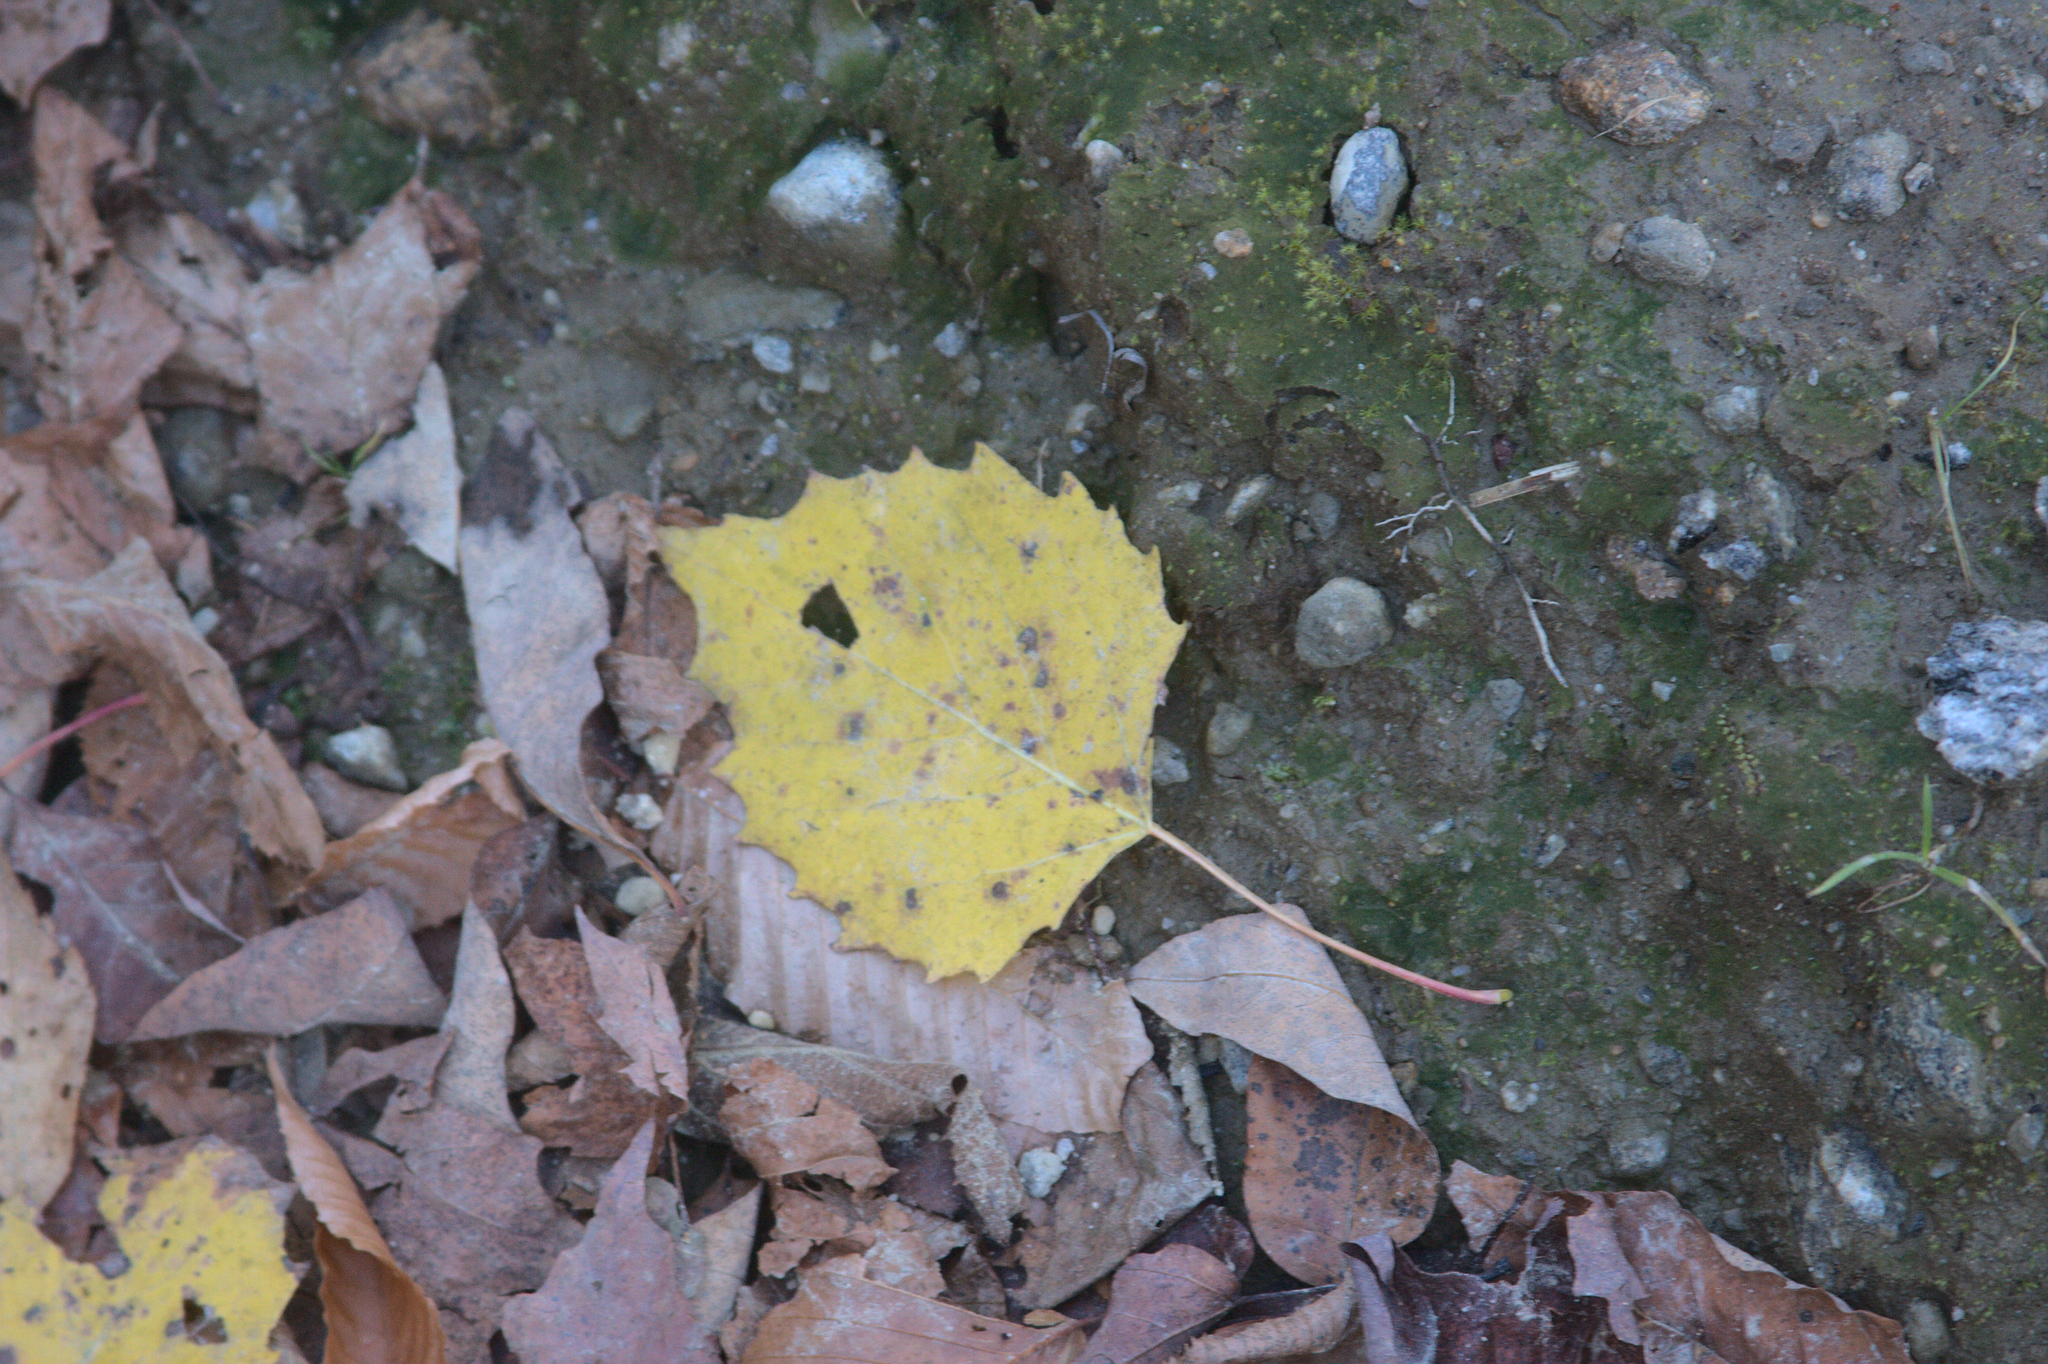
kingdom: Plantae
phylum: Tracheophyta
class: Magnoliopsida
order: Malpighiales
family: Salicaceae
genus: Populus
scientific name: Populus grandidentata
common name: Bigtooth aspen
